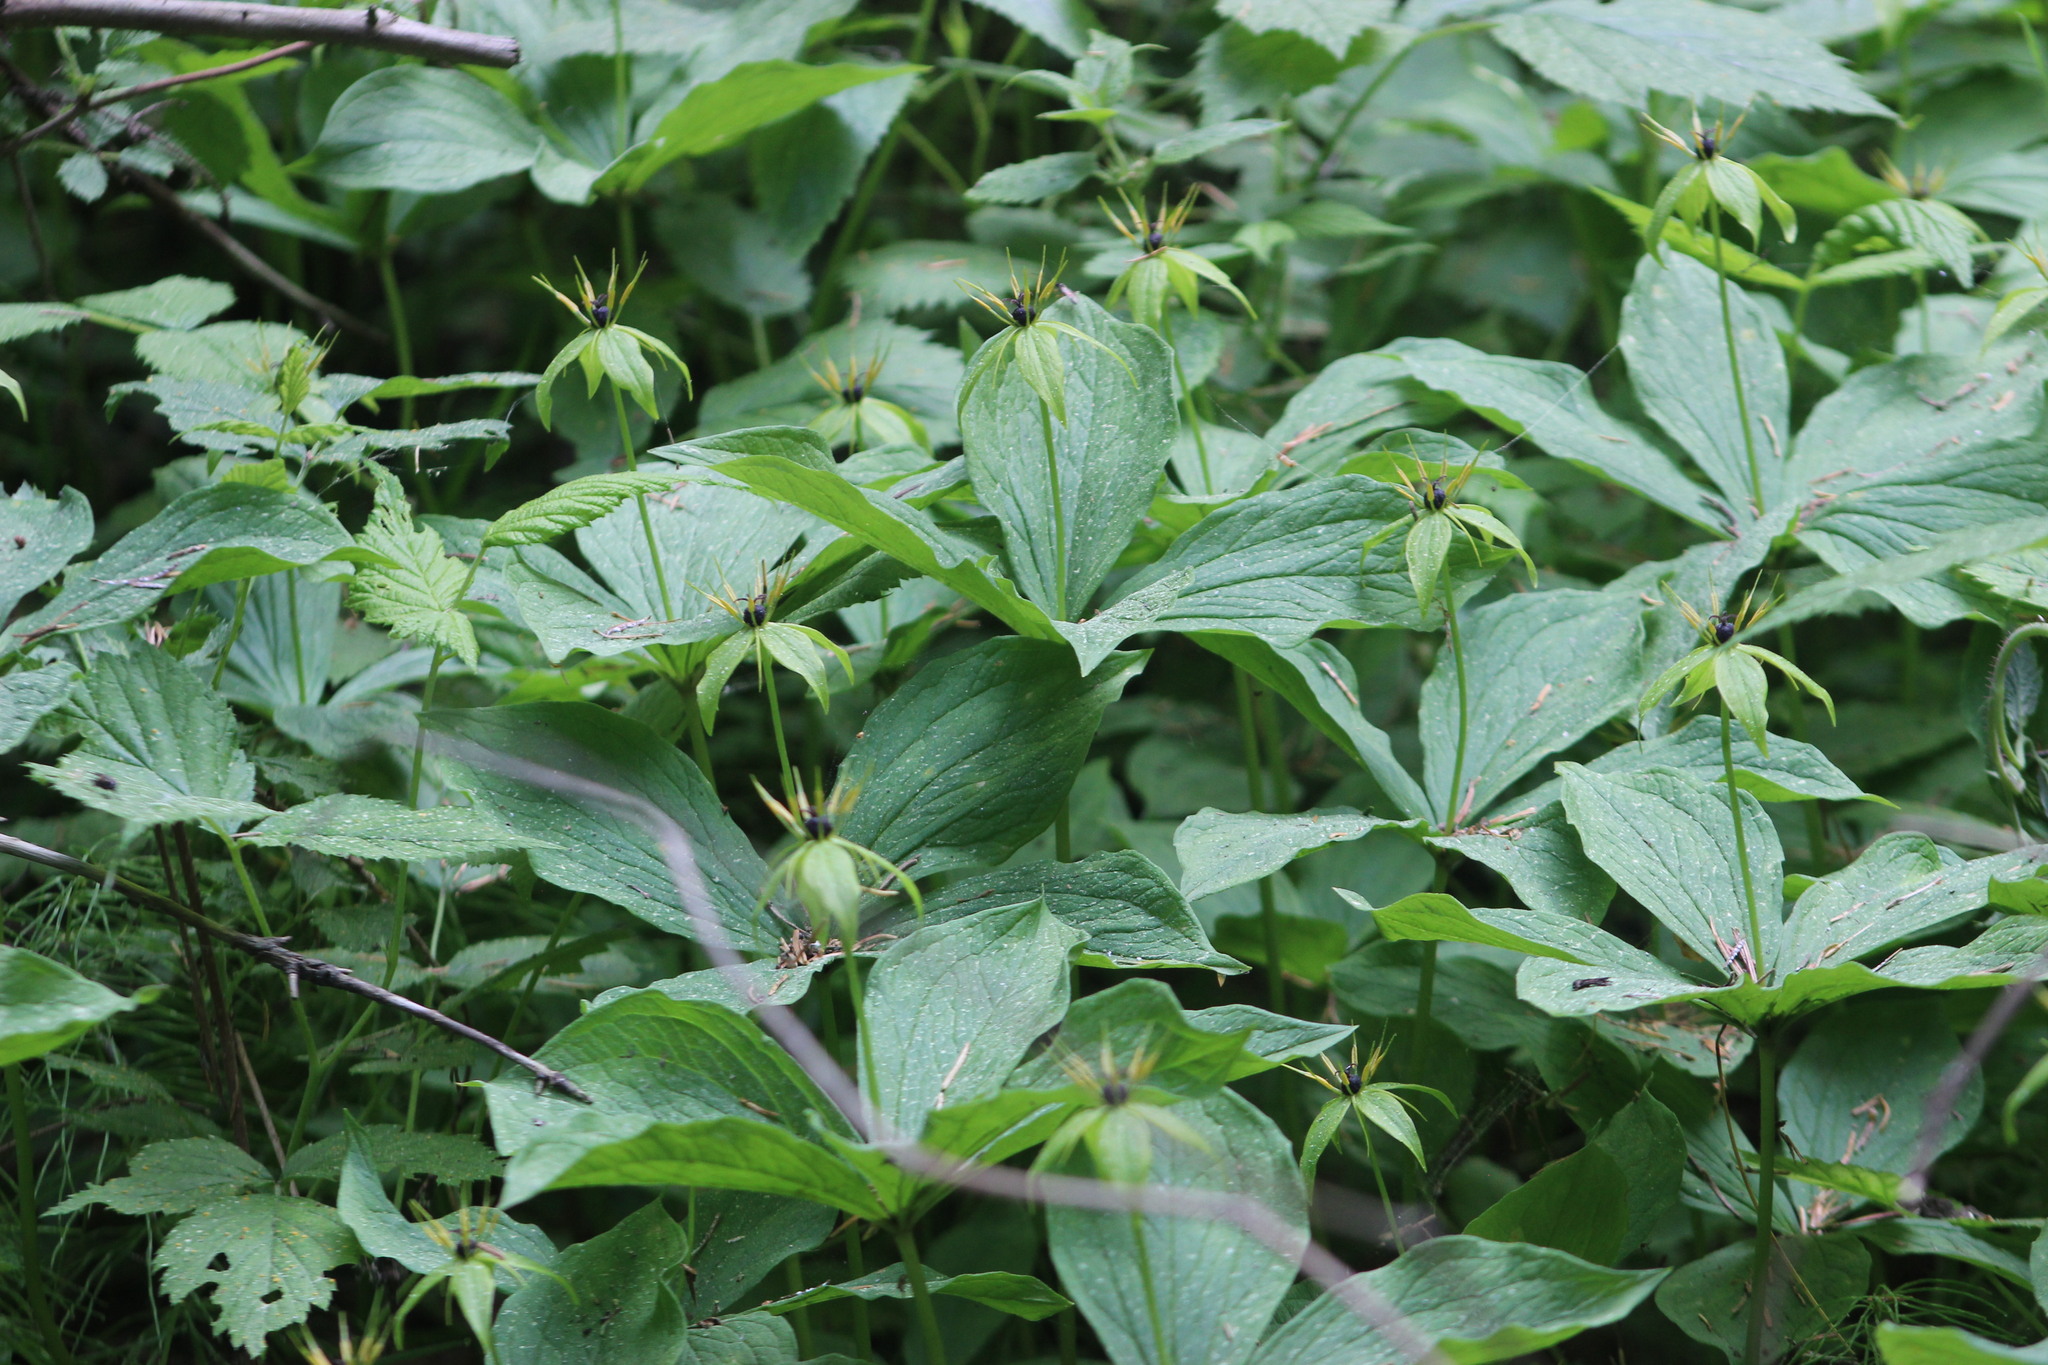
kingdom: Plantae
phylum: Tracheophyta
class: Liliopsida
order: Liliales
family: Melanthiaceae
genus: Paris
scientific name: Paris quadrifolia
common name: Herb-paris
